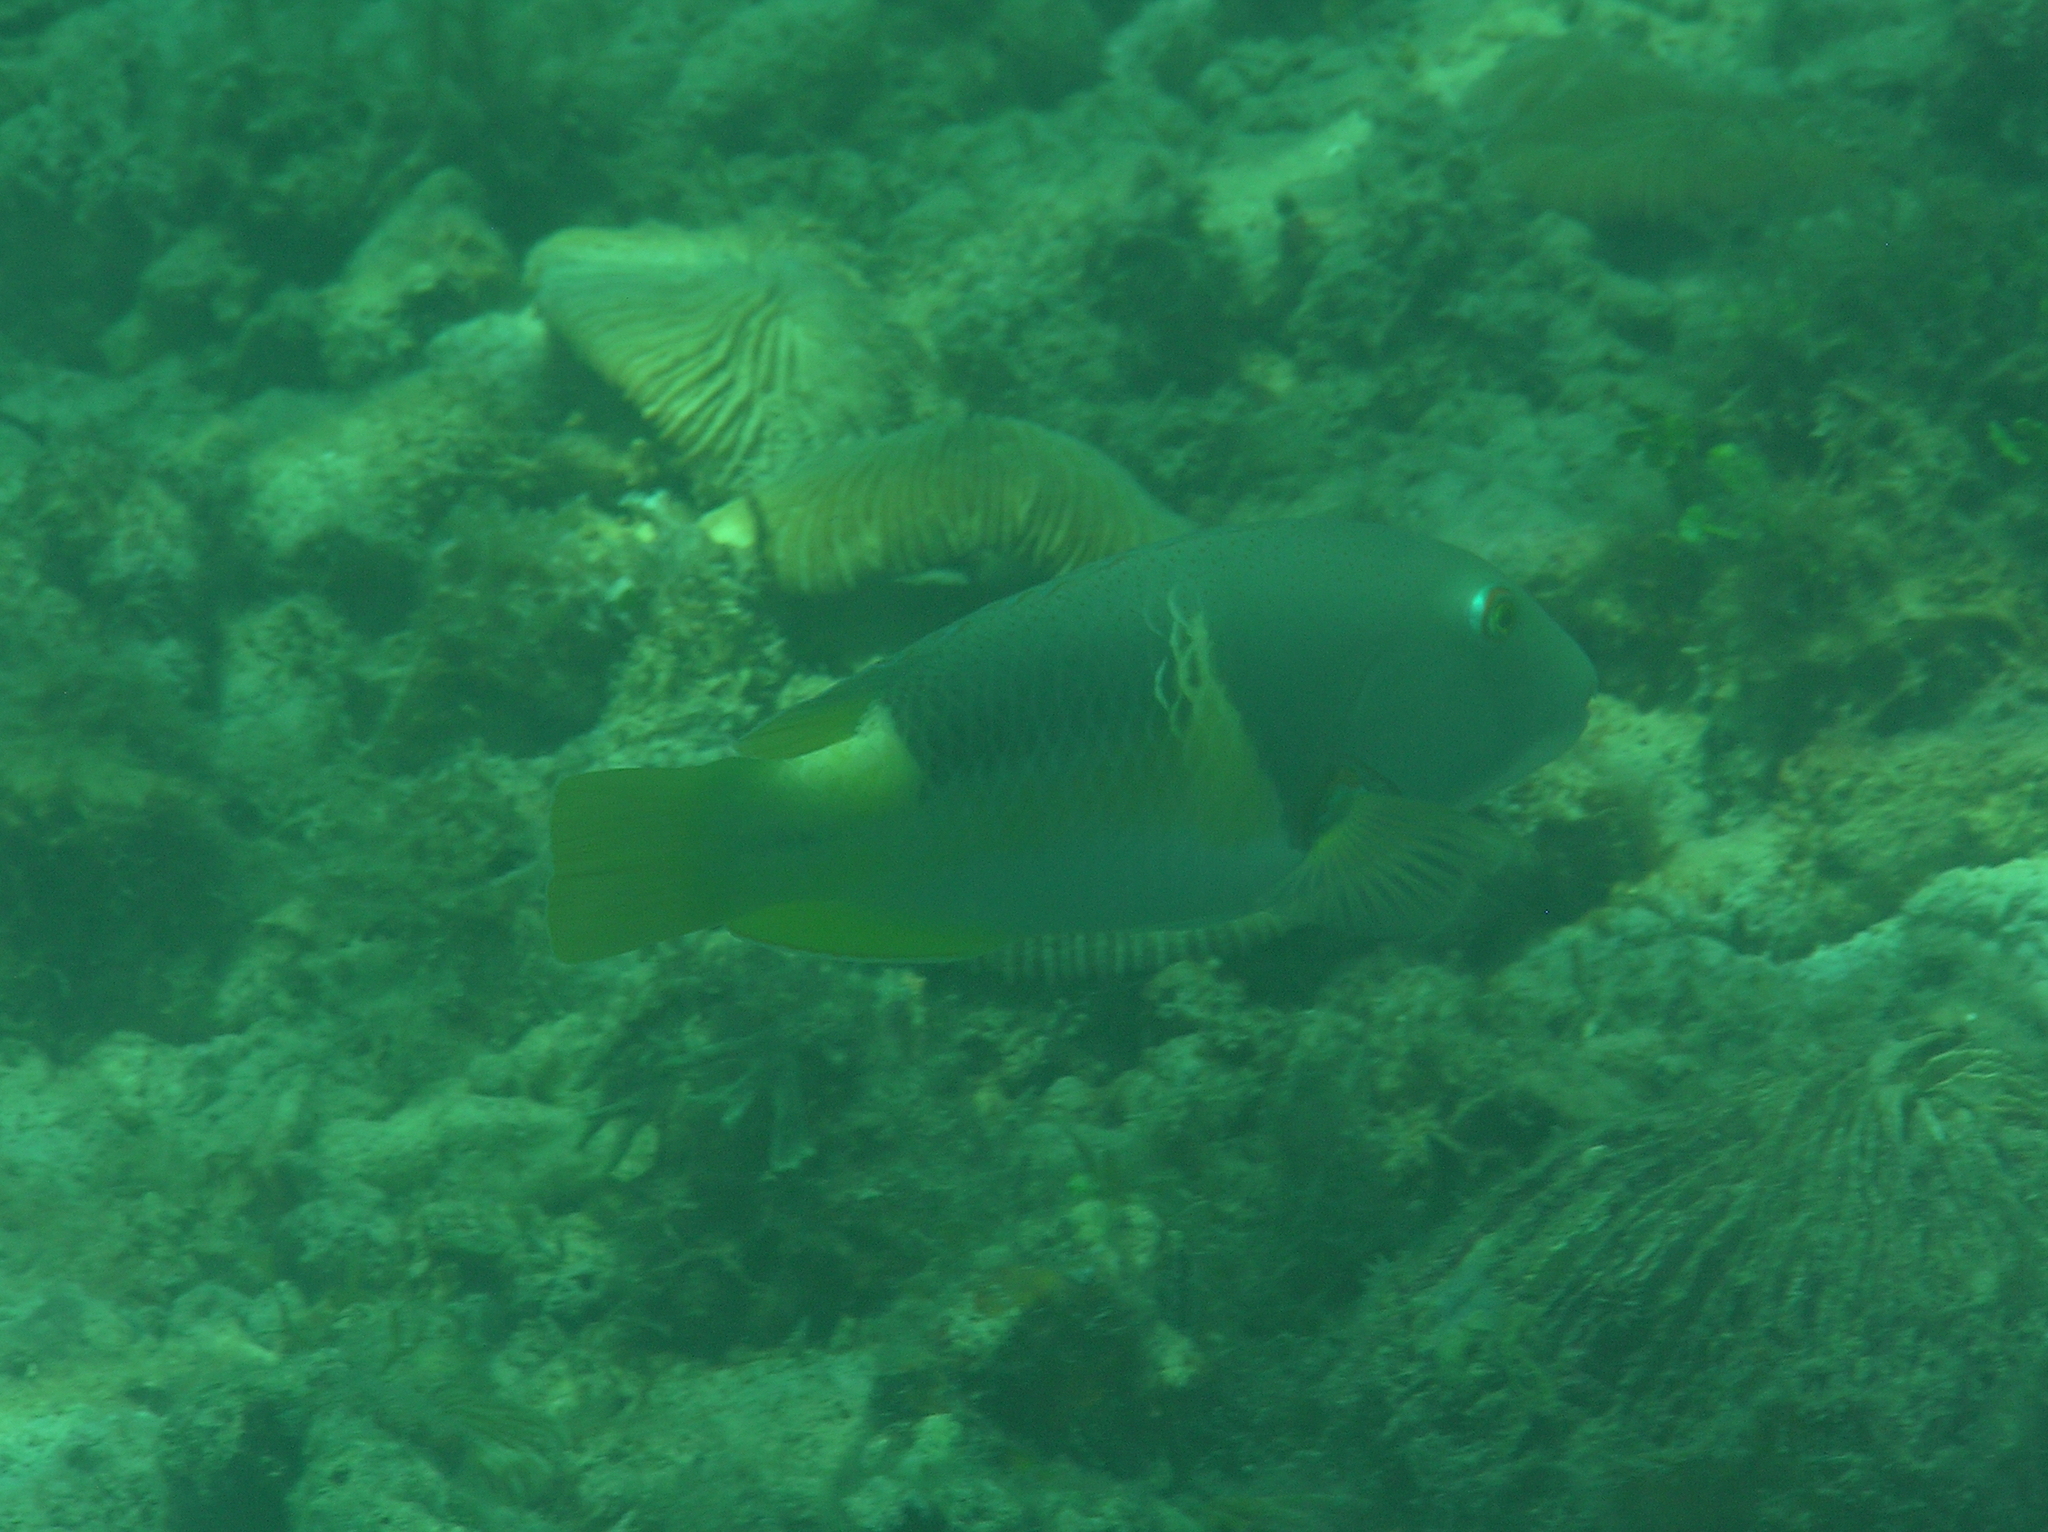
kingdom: Animalia
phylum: Chordata
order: Perciformes
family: Labridae
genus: Choerodon
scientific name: Choerodon anchorago
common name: Anchor tuskfish
